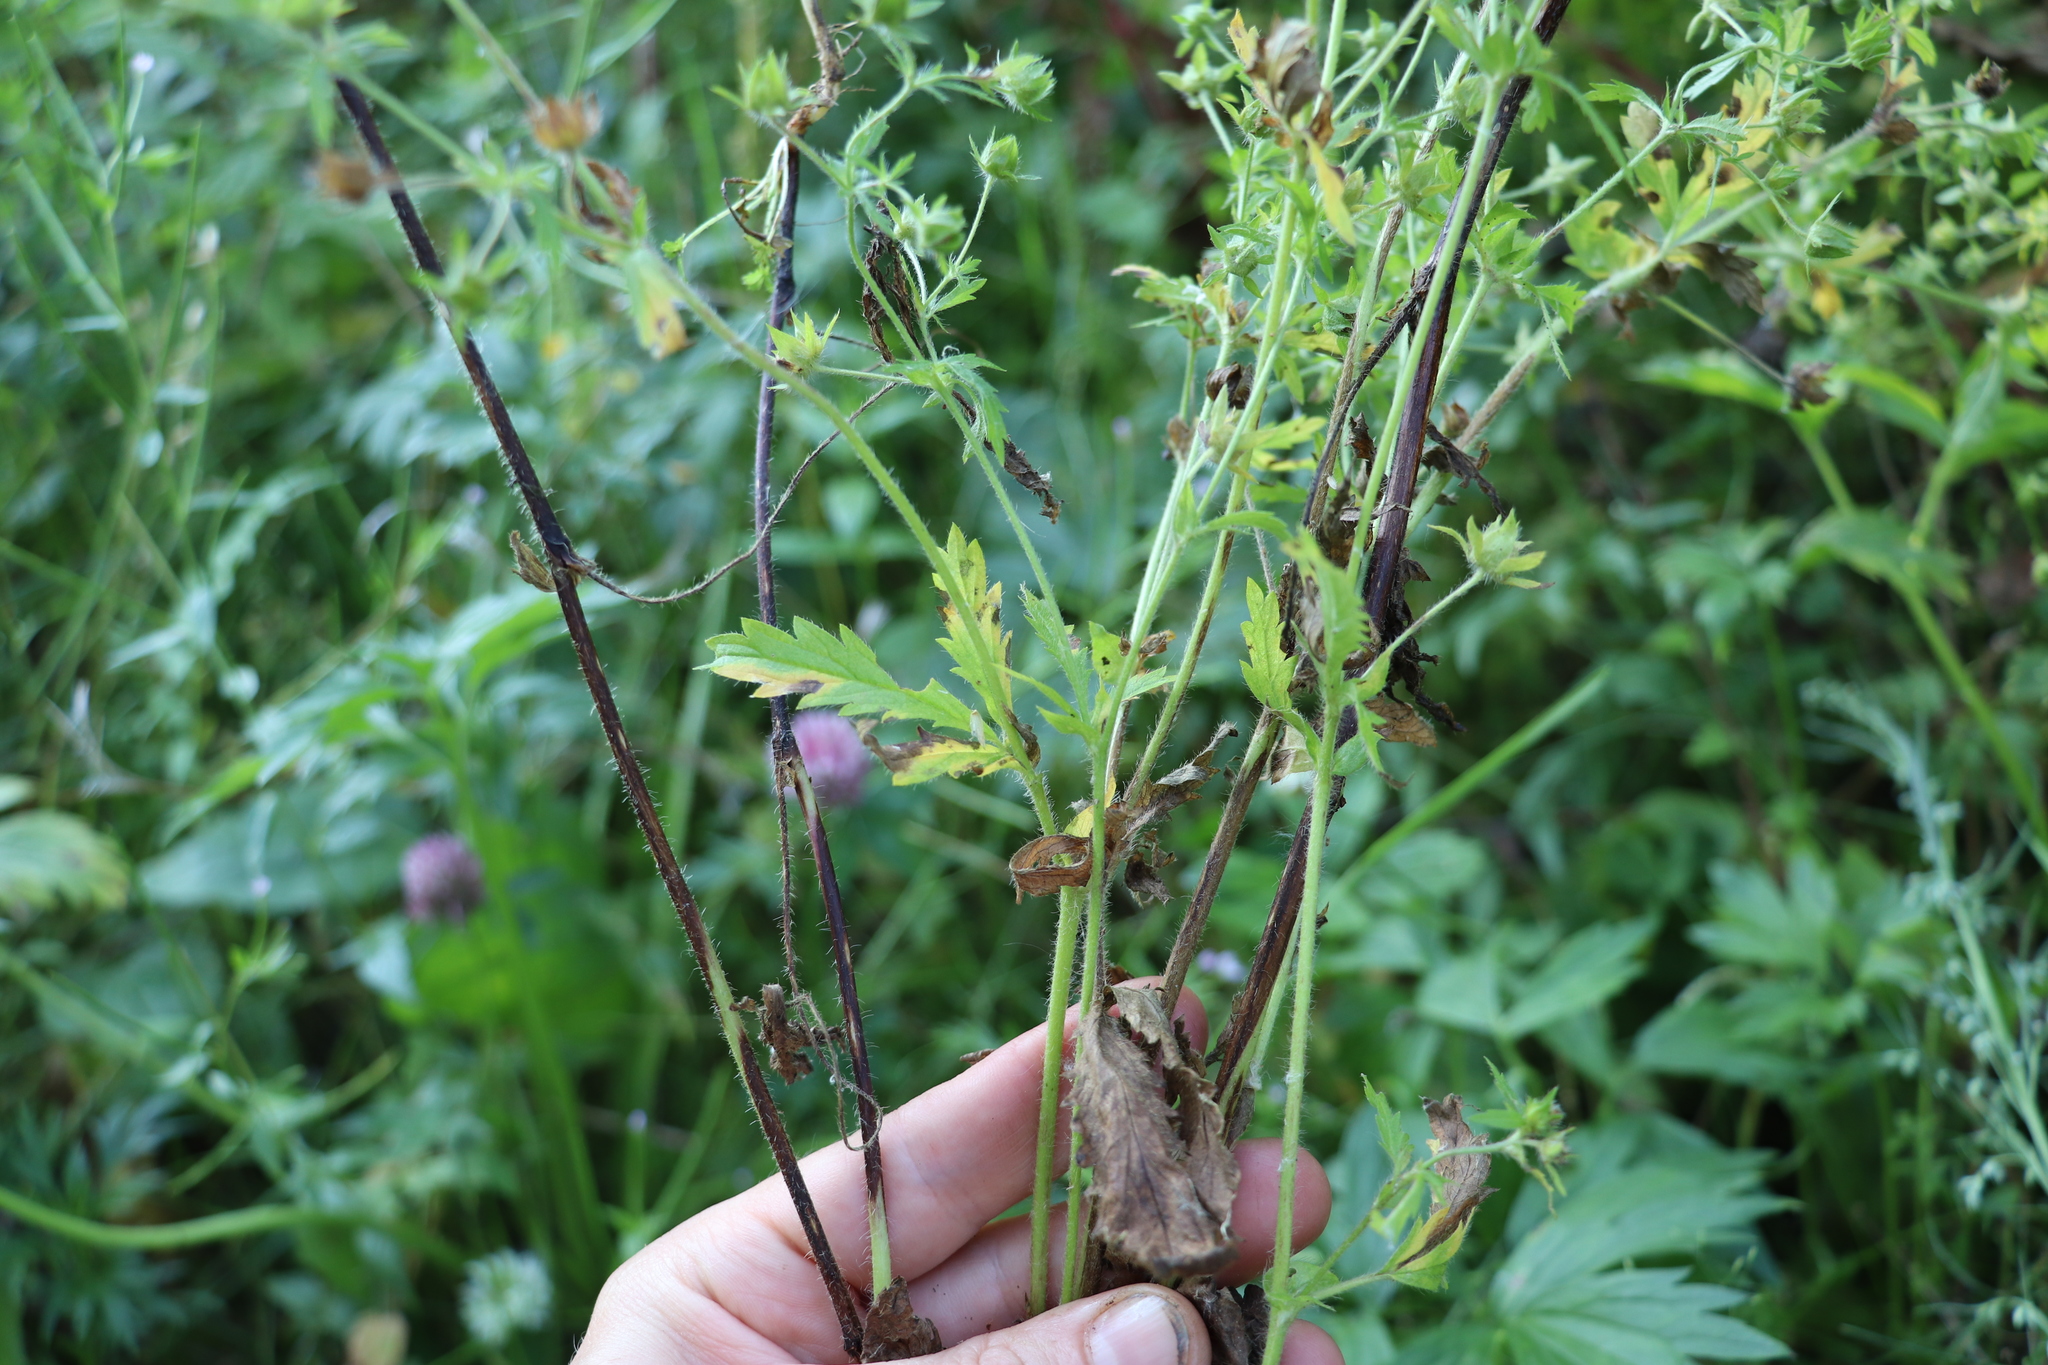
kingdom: Plantae
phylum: Tracheophyta
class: Magnoliopsida
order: Rosales
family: Rosaceae
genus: Potentilla
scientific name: Potentilla norvegica
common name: Ternate-leaved cinquefoil
